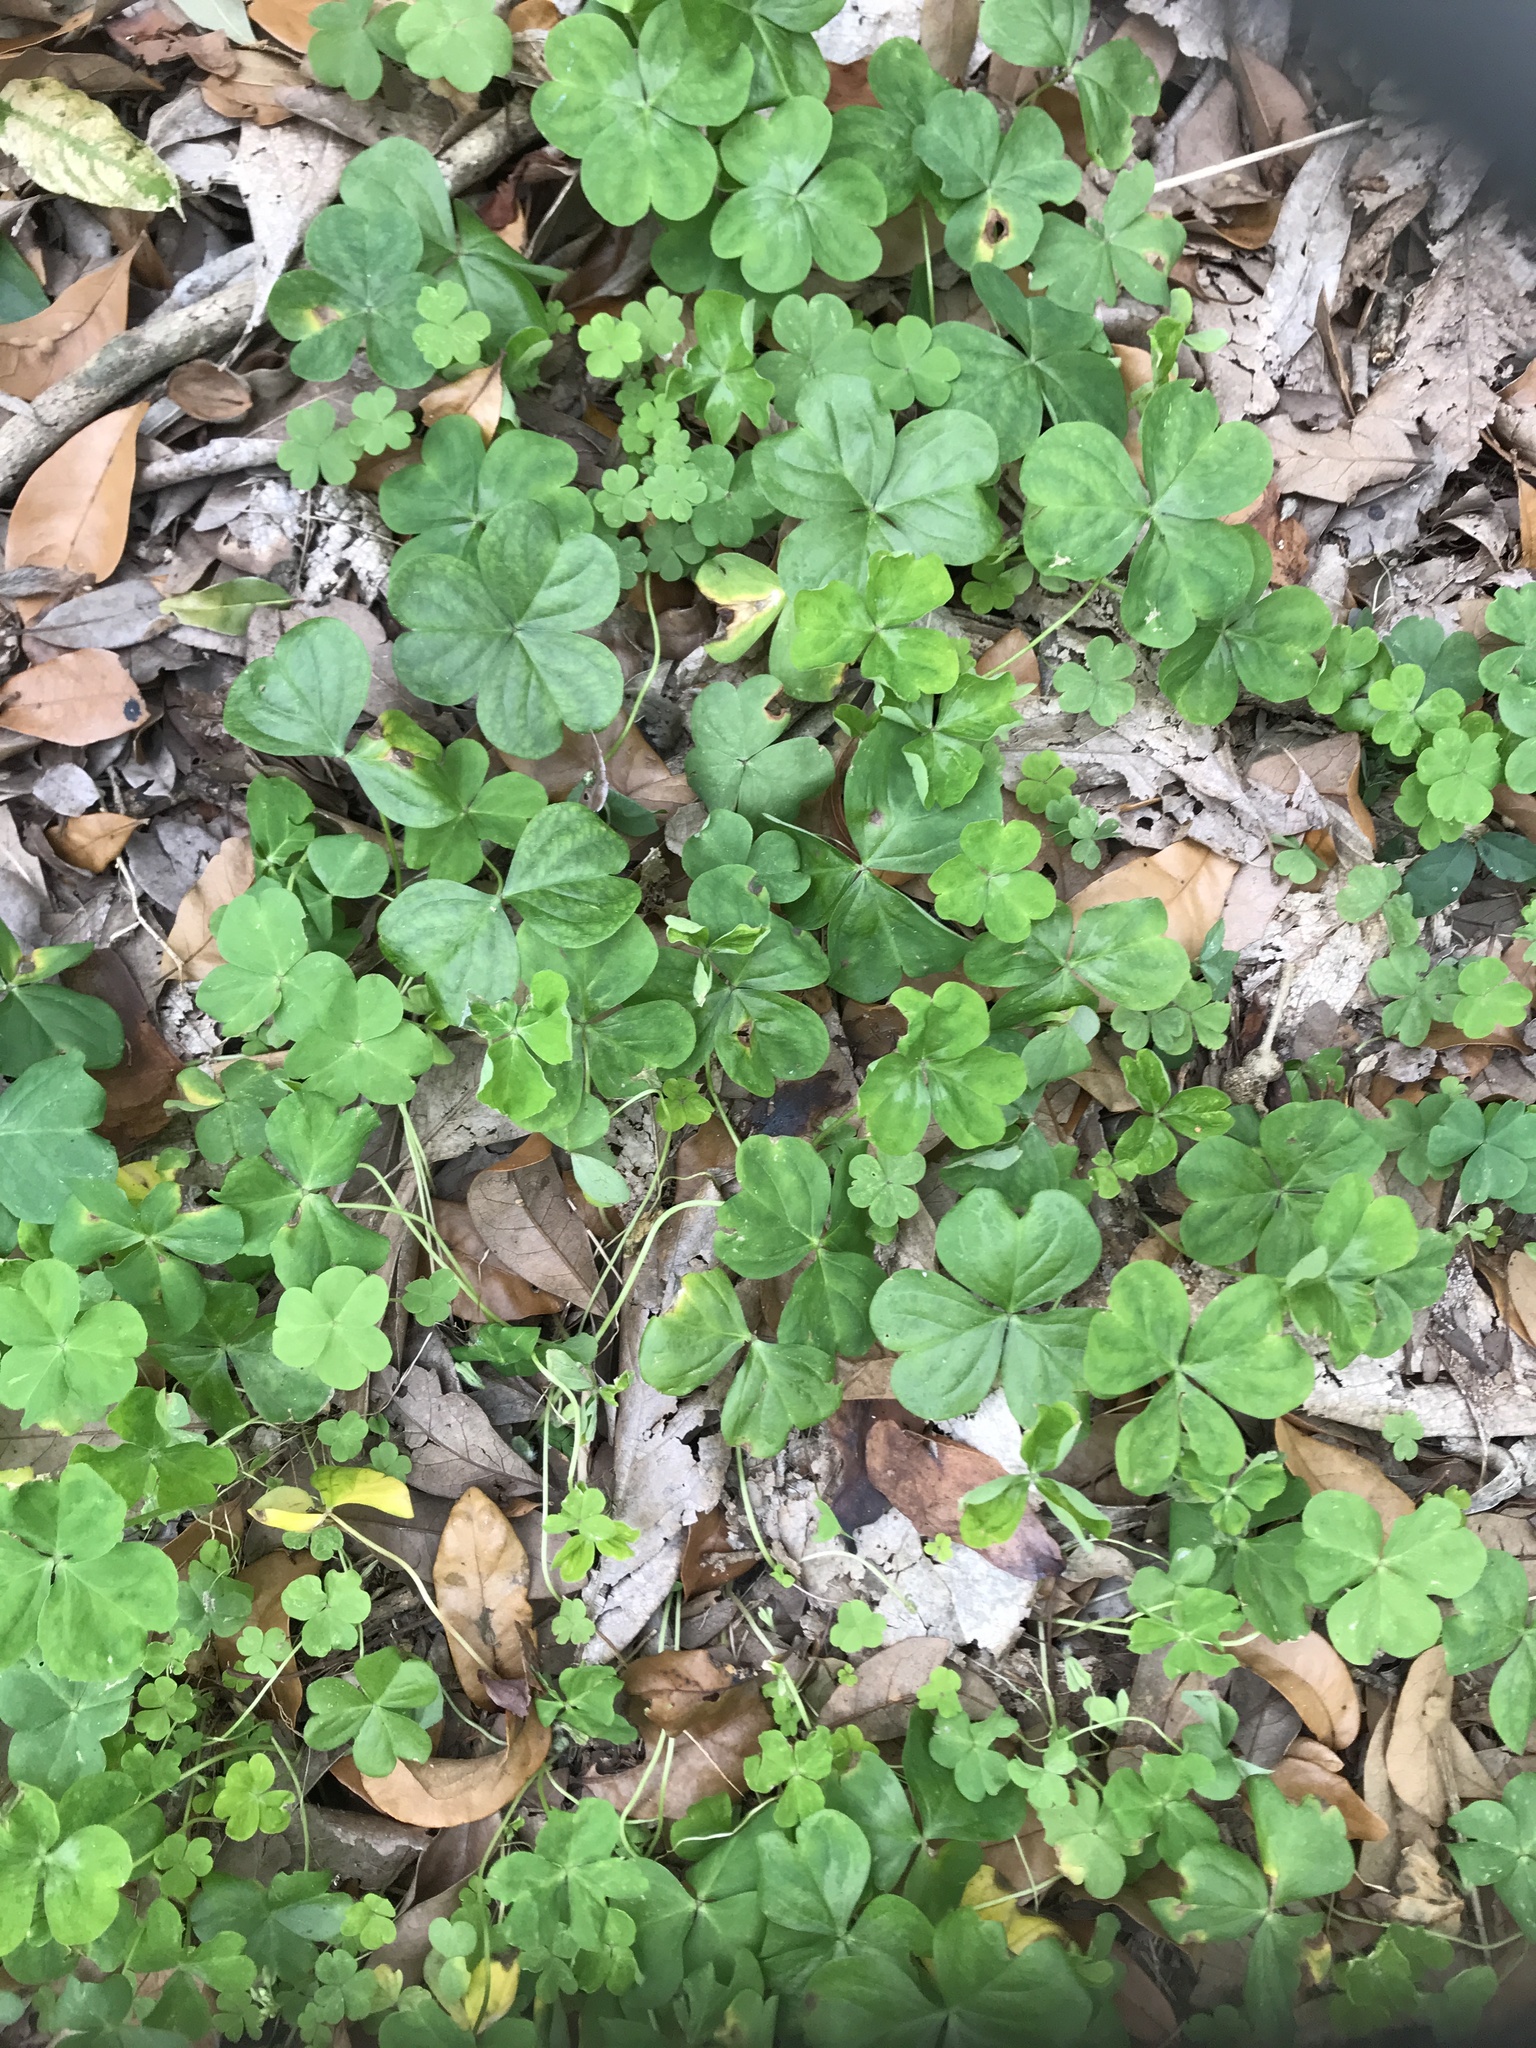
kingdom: Plantae
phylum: Tracheophyta
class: Magnoliopsida
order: Oxalidales
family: Oxalidaceae
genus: Oxalis
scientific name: Oxalis debilis
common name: Large-flowered pink-sorrel
